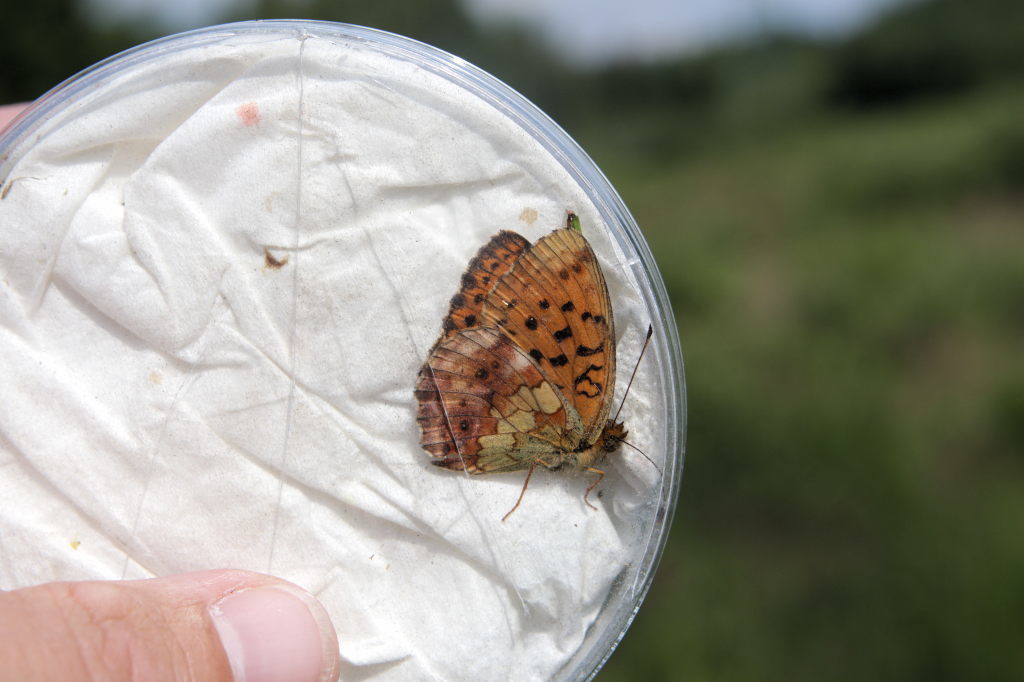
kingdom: Animalia
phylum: Arthropoda
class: Insecta
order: Lepidoptera
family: Nymphalidae
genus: Brenthis
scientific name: Brenthis daphne
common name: Marbled fritillary
